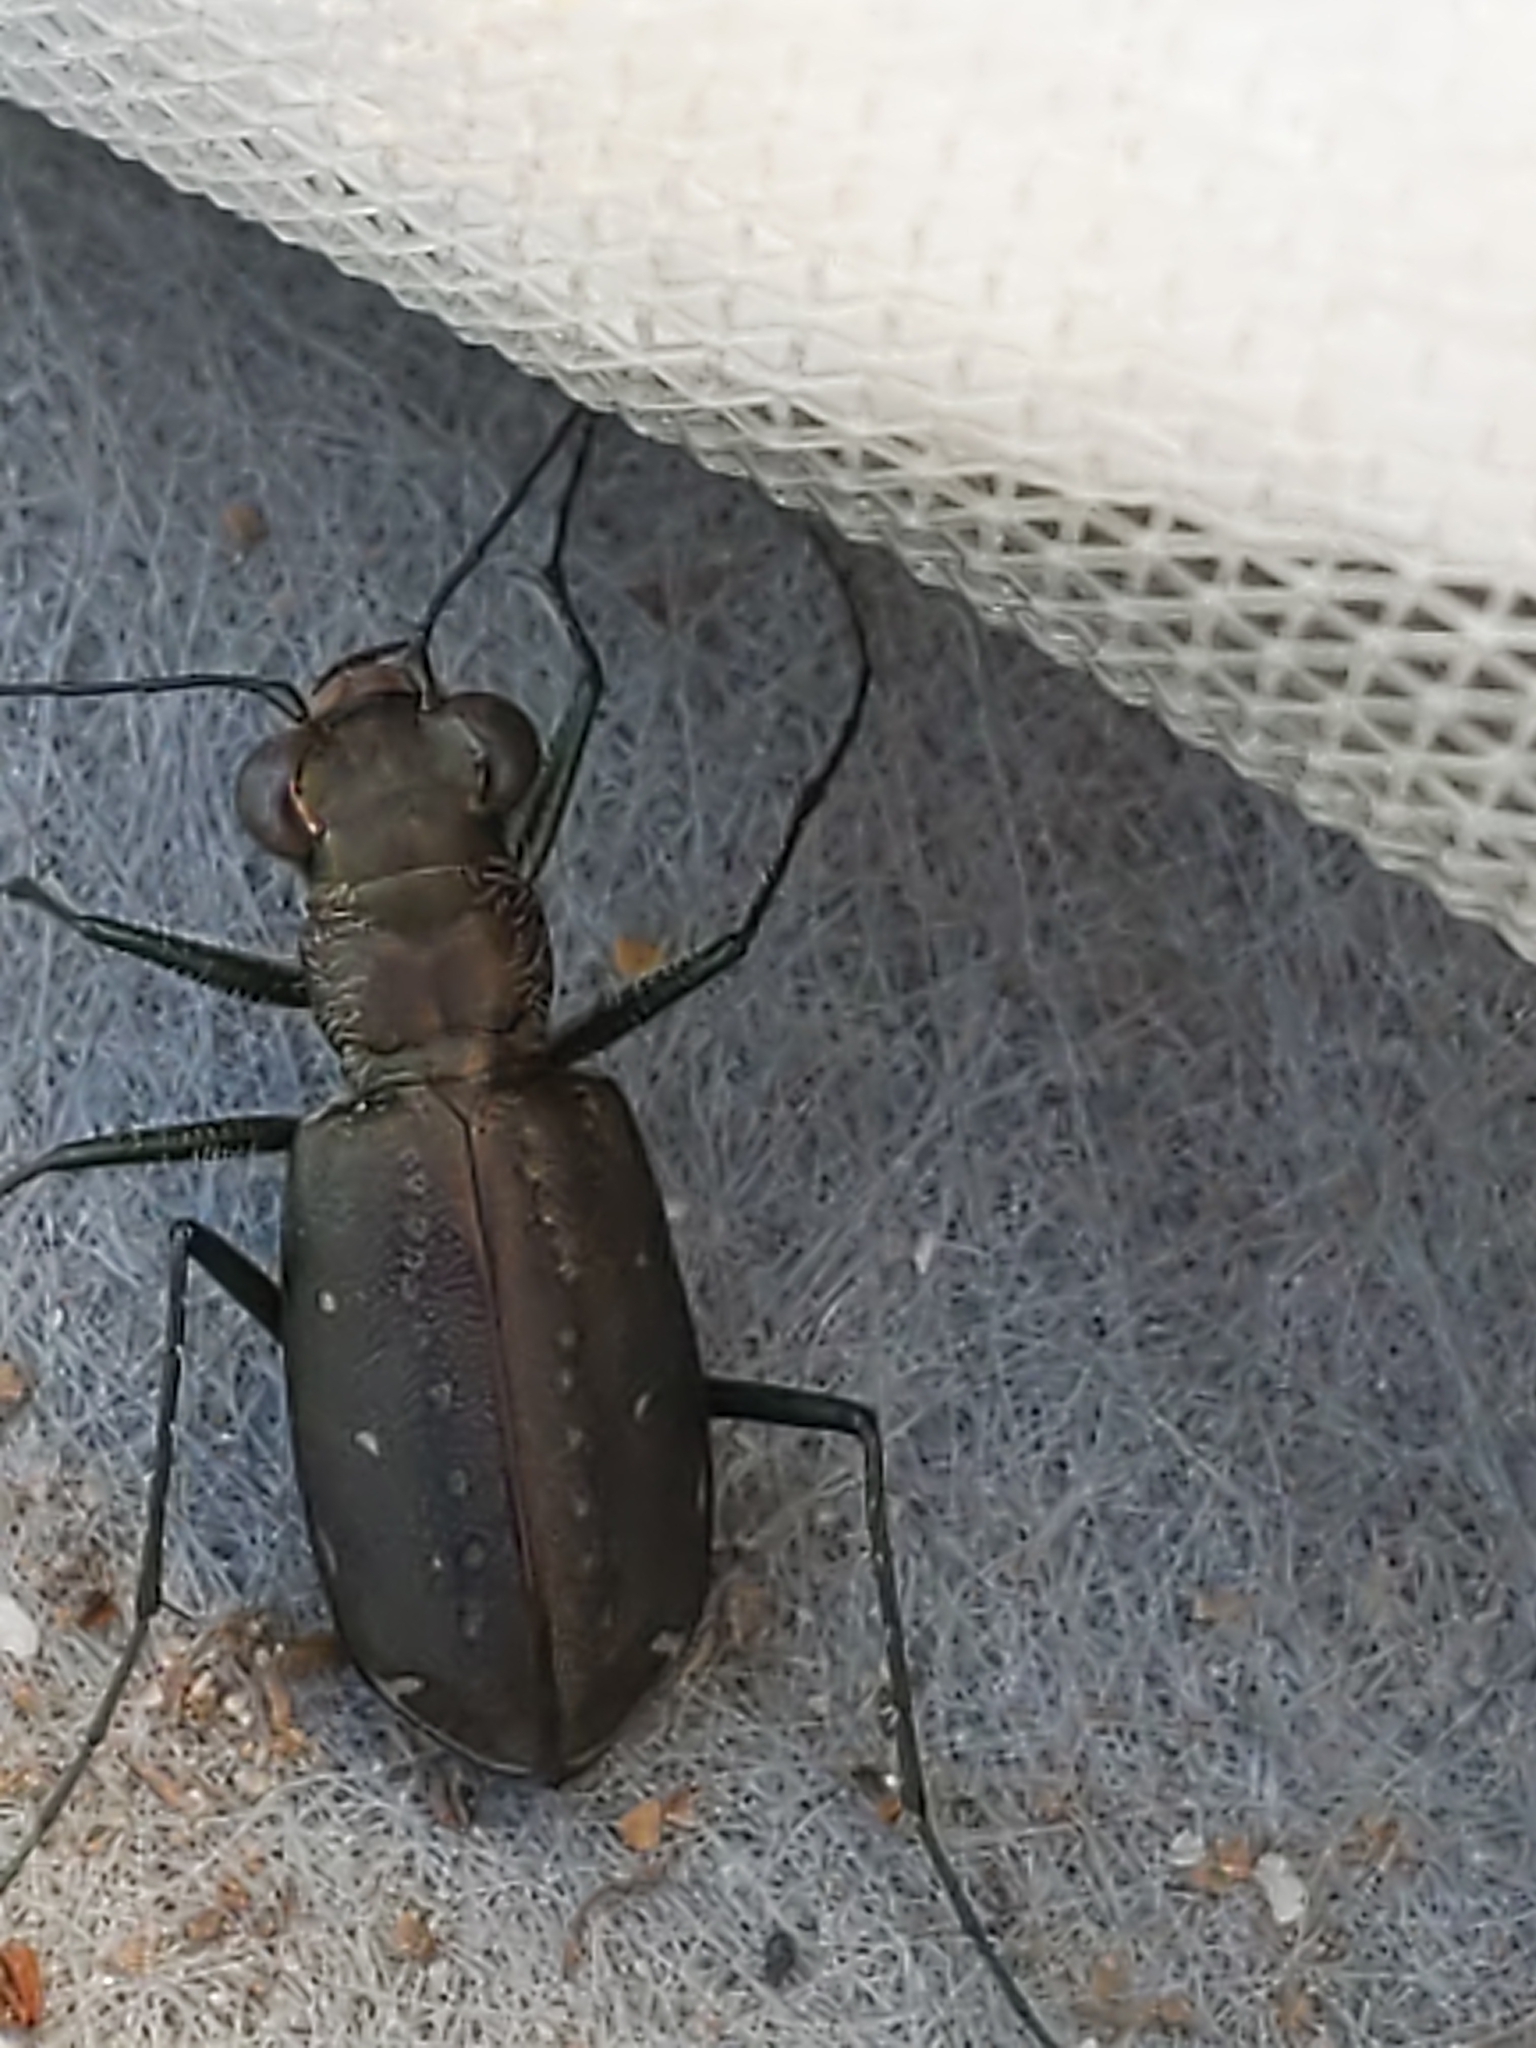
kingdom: Animalia
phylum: Arthropoda
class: Insecta
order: Coleoptera
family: Carabidae
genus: Cicindela
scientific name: Cicindela punctulata
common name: Punctured tiger beetle
